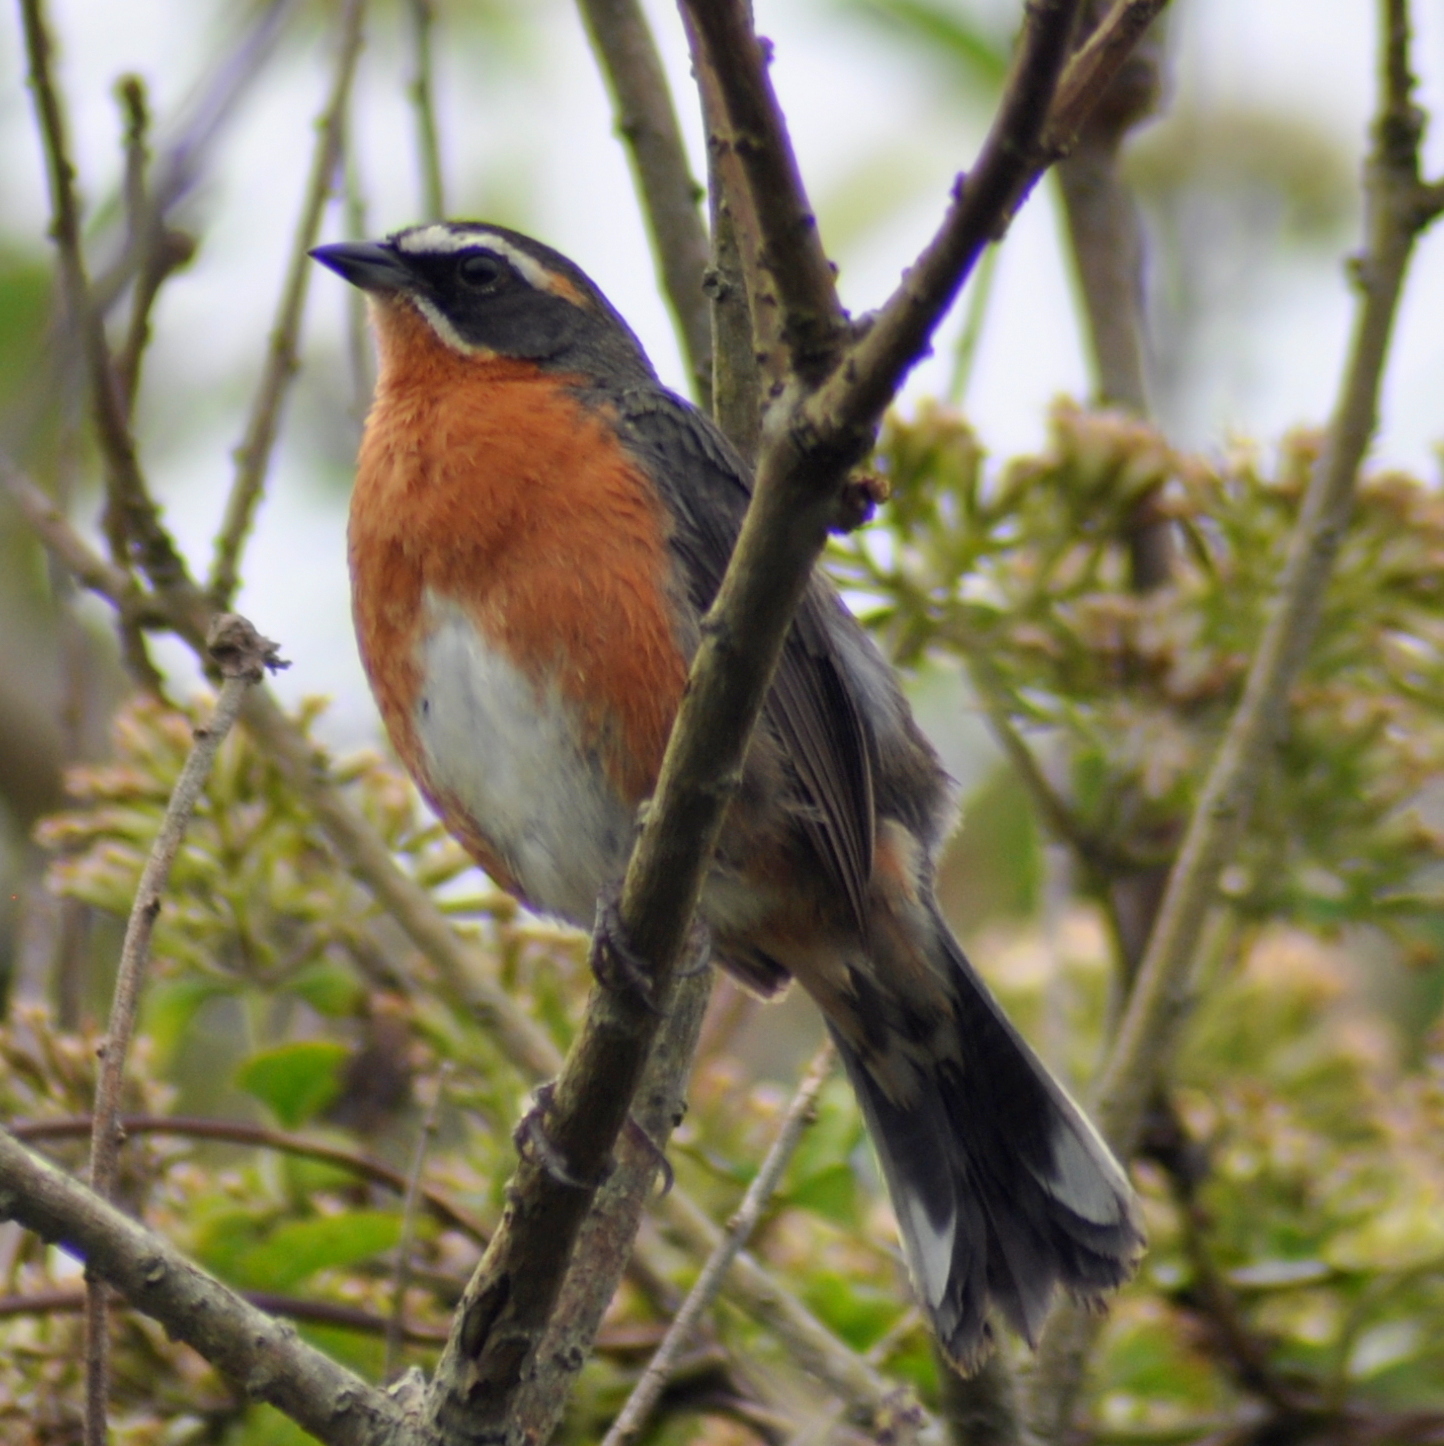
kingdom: Animalia
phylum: Chordata
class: Aves
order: Passeriformes
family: Thraupidae
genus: Poospiza
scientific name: Poospiza nigrorufa
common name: Black-and-rufous warbling finch
